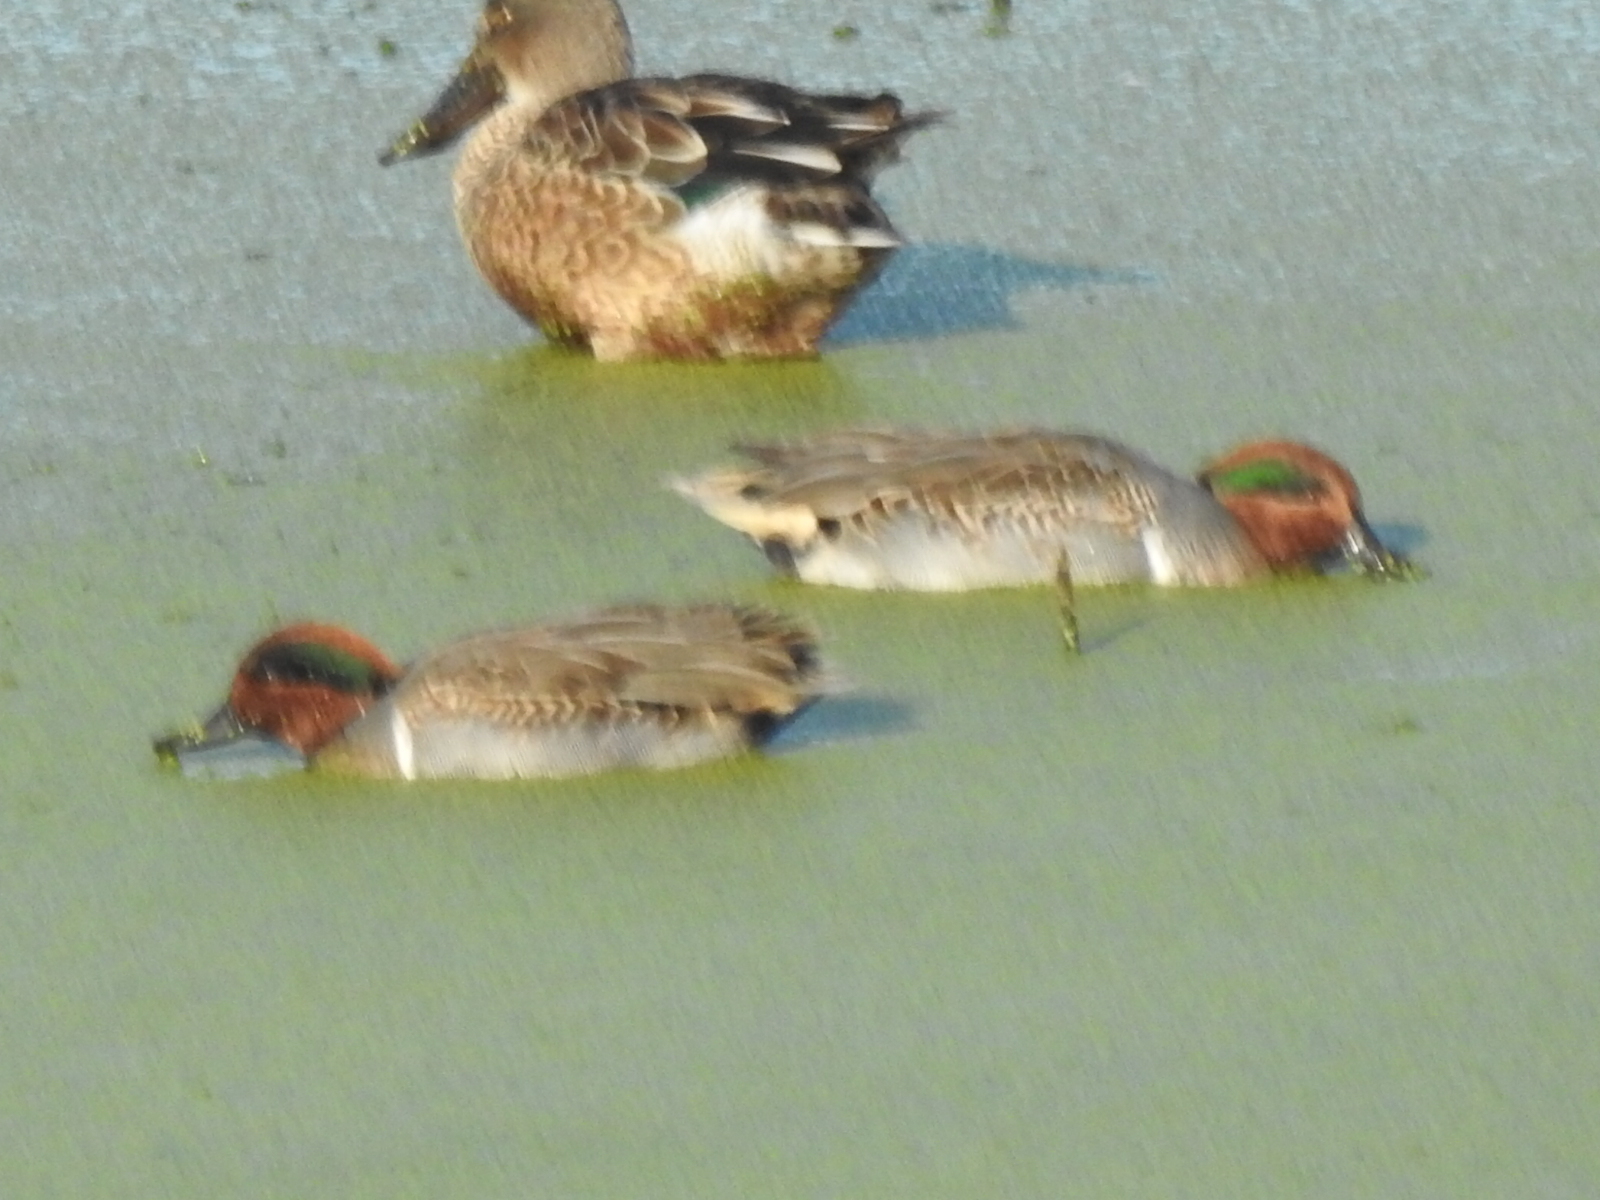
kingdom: Animalia
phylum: Chordata
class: Aves
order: Anseriformes
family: Anatidae
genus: Anas
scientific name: Anas crecca
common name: Eurasian teal
